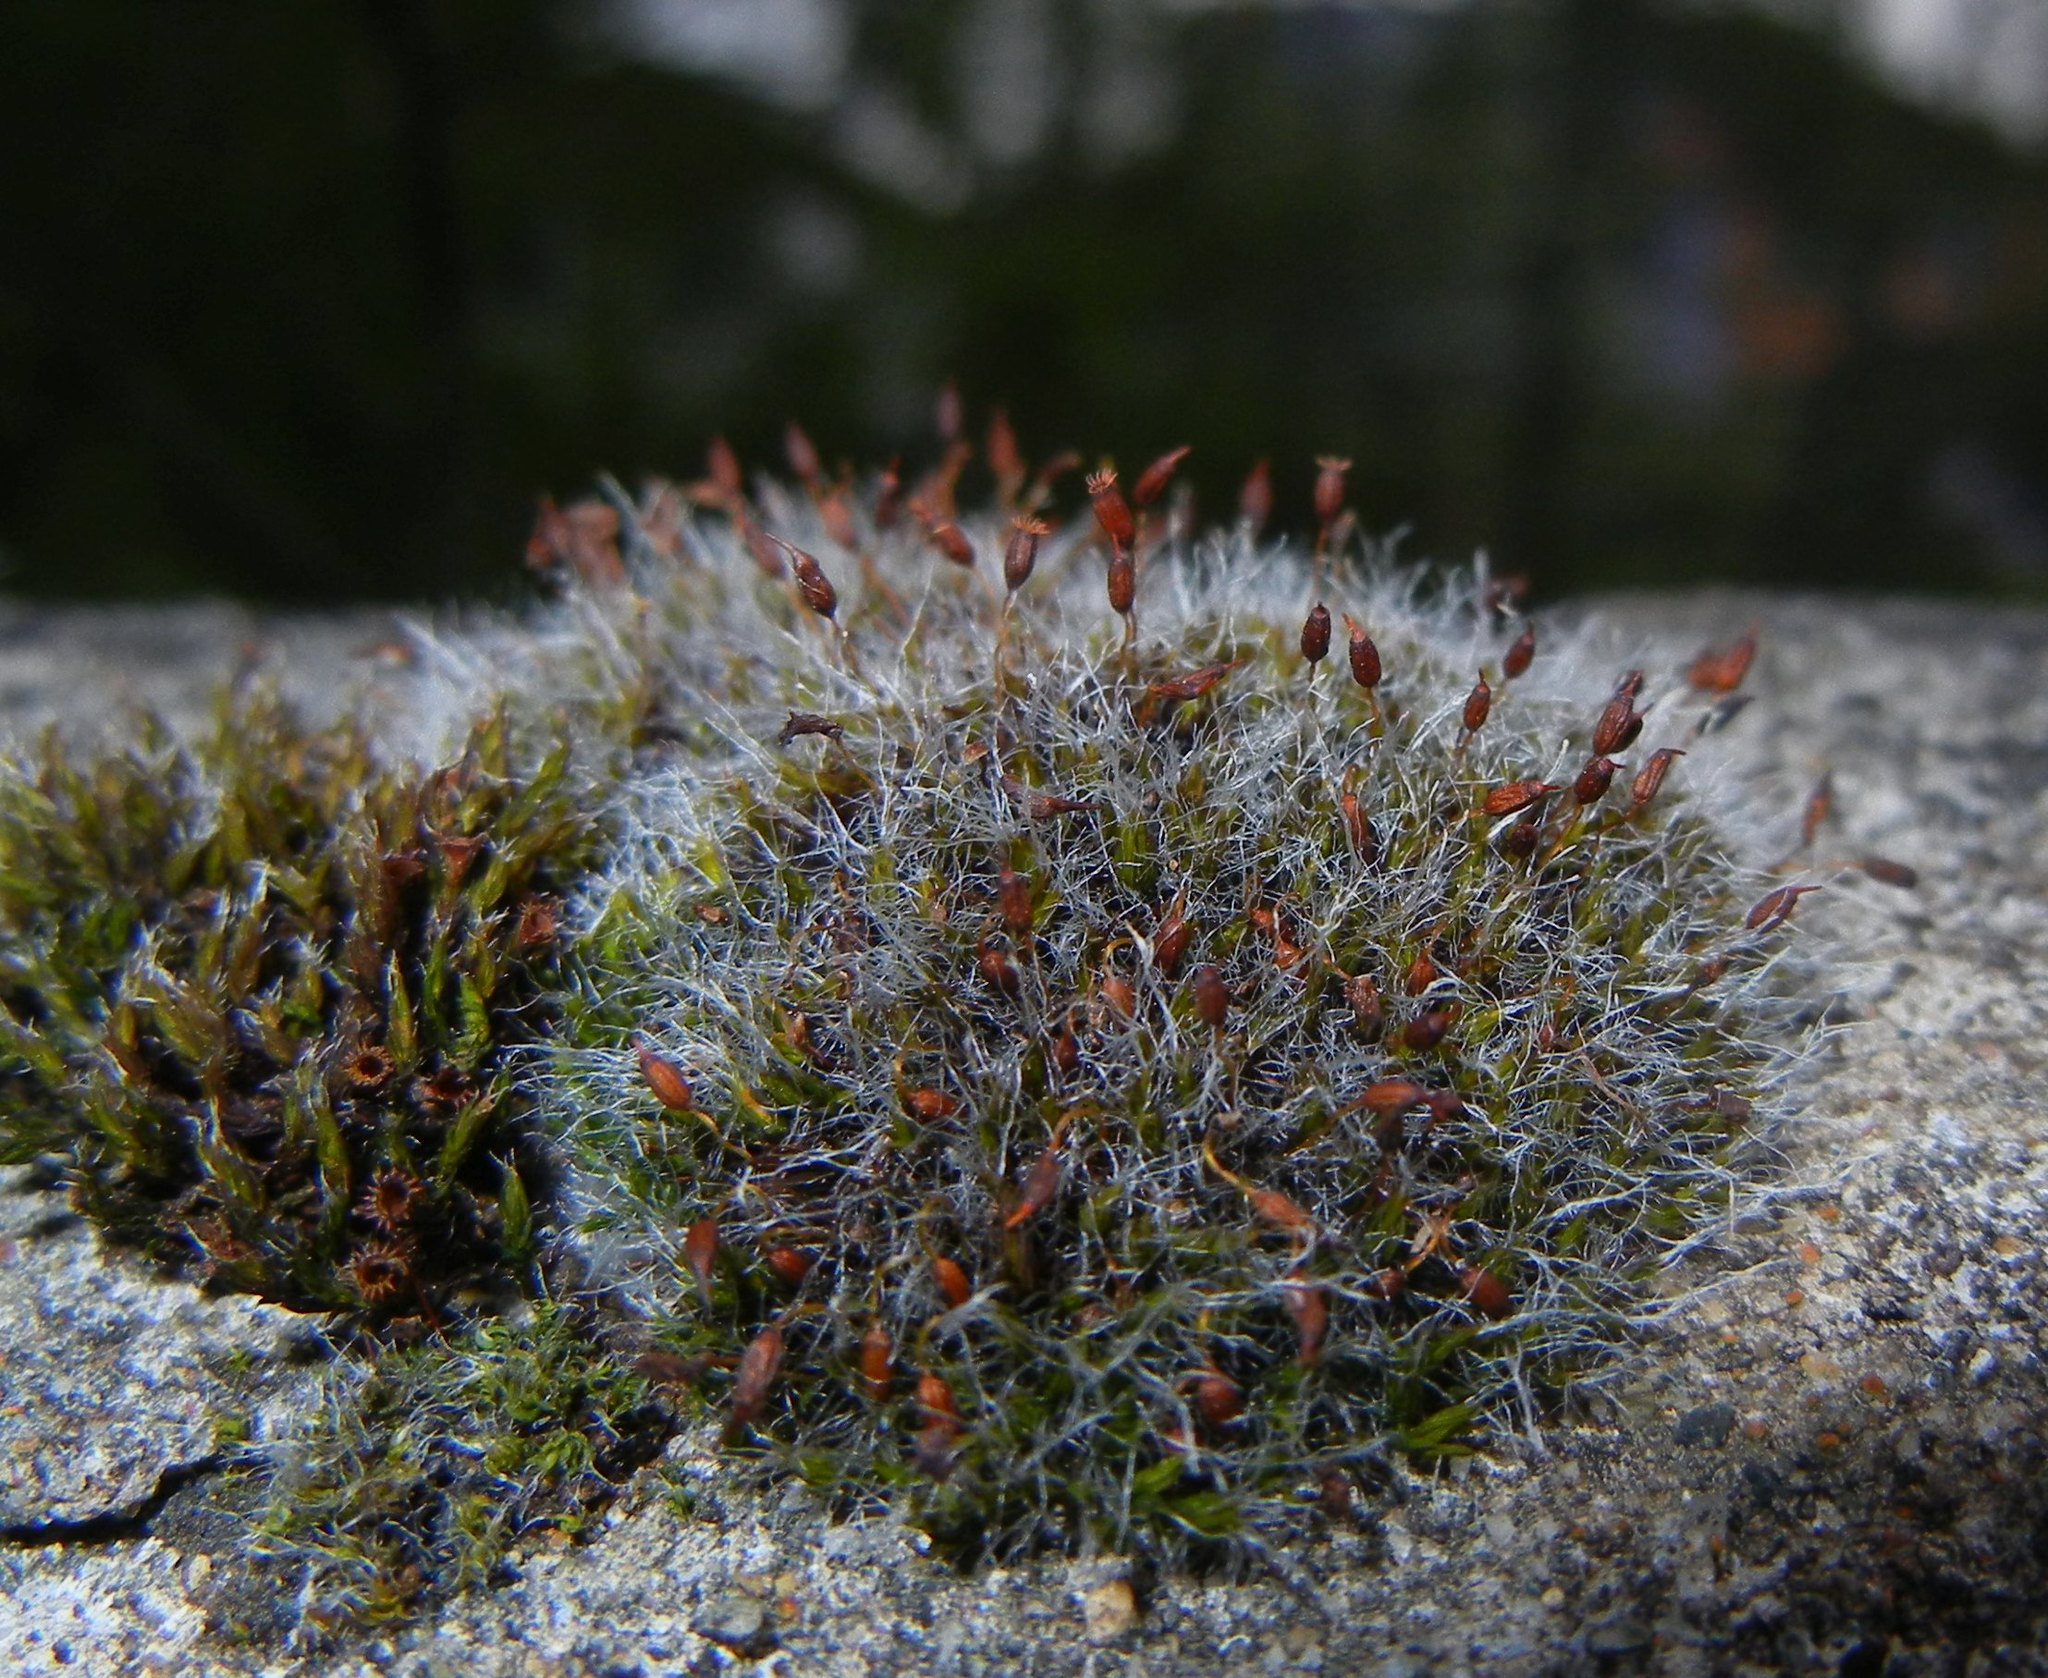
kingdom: Plantae
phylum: Bryophyta
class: Bryopsida
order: Grimmiales
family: Grimmiaceae
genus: Grimmia
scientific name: Grimmia pulvinata
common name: Grey-cushioned grimmia
